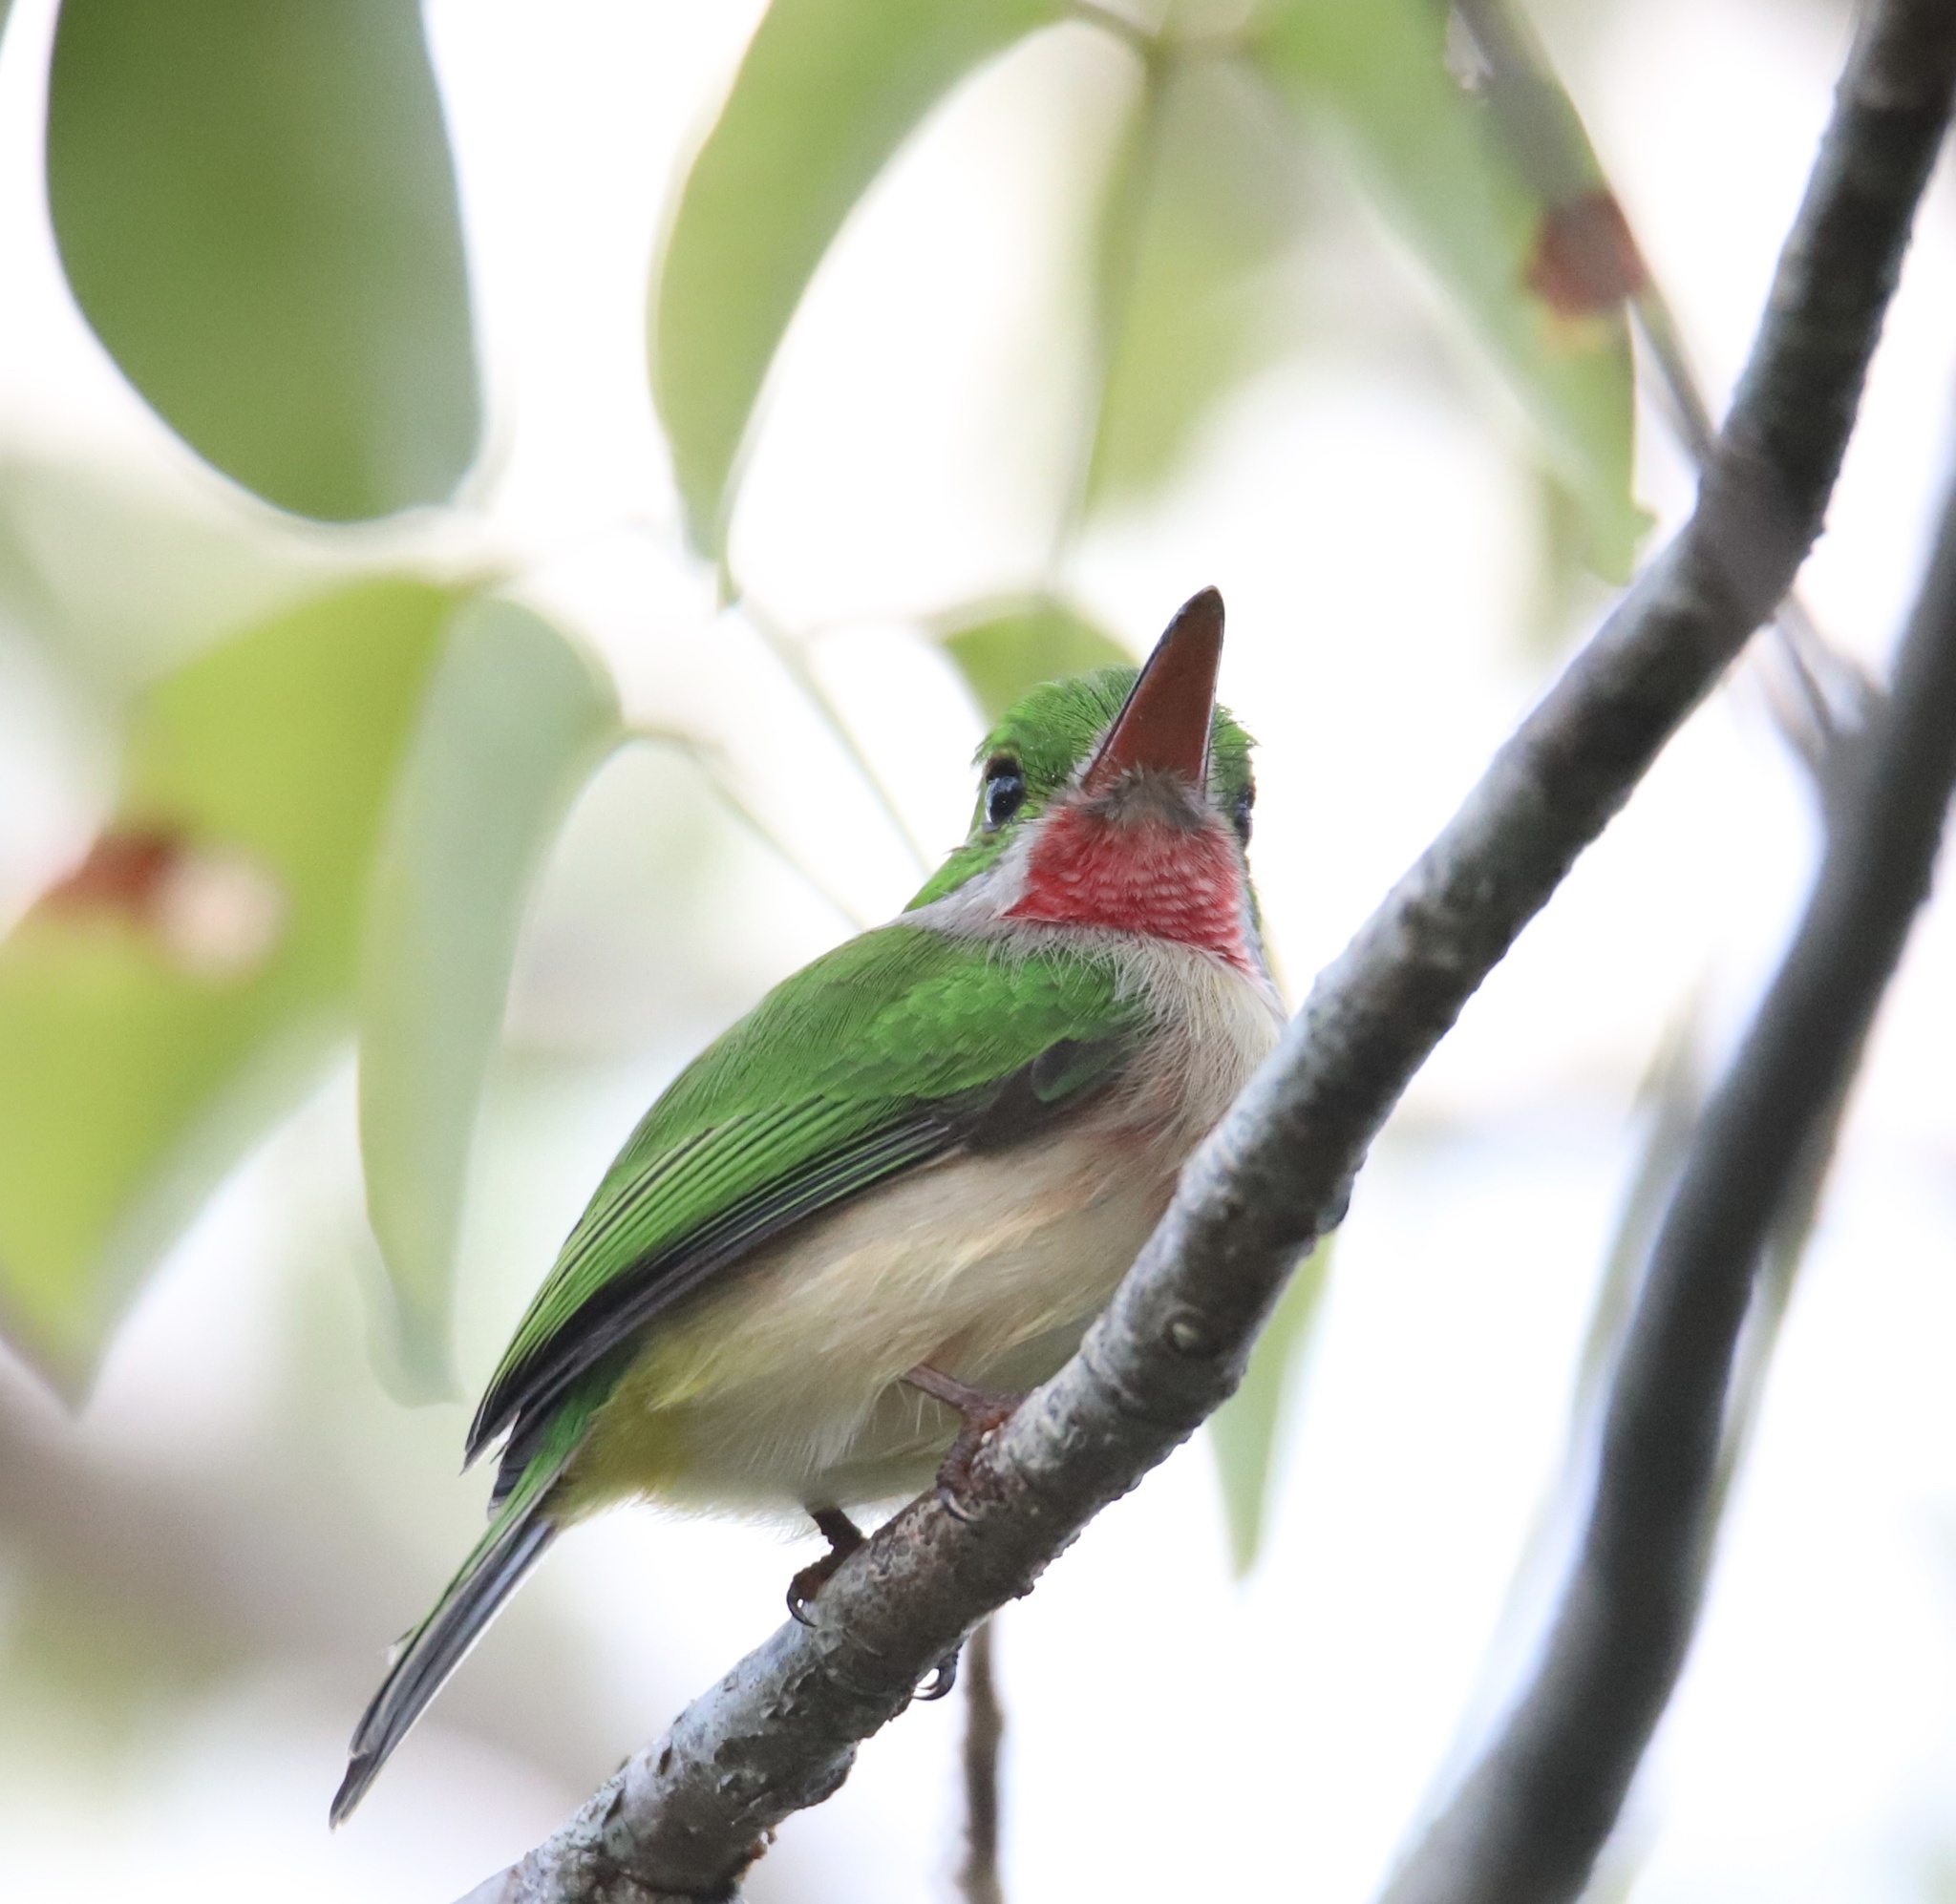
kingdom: Animalia
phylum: Chordata
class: Aves
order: Coraciiformes
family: Todidae
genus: Todus
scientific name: Todus subulatus
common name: Broad-billed tody
